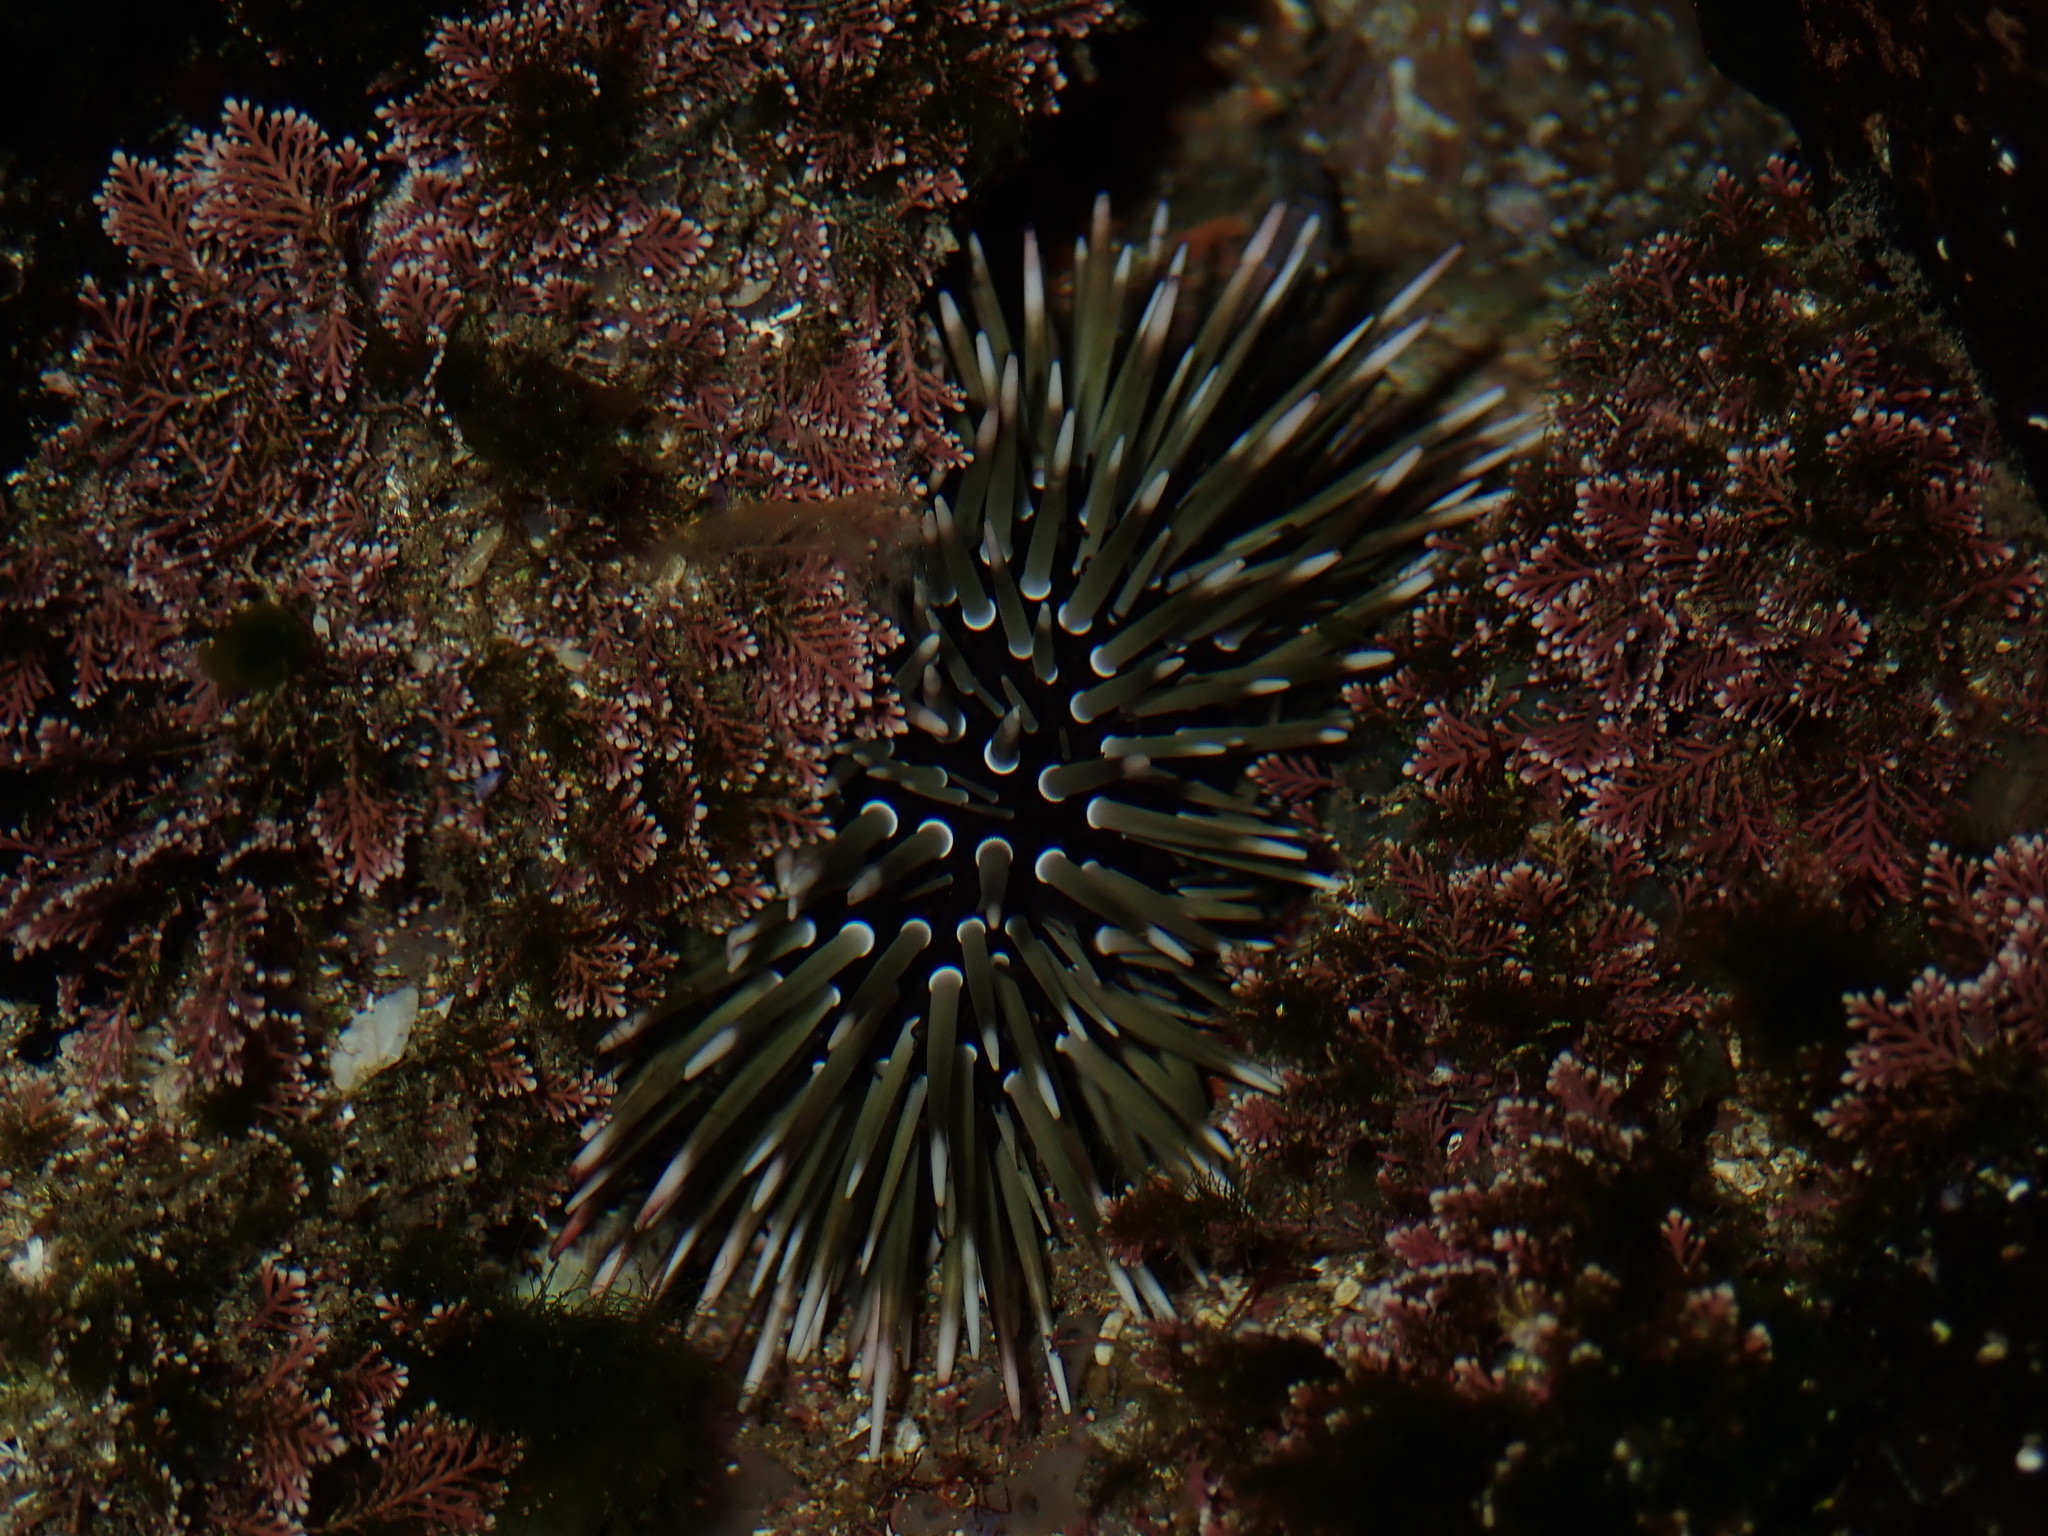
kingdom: Animalia
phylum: Echinodermata
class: Echinoidea
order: Camarodonta
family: Echinometridae
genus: Echinometra
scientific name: Echinometra mathaei
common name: Rock-boring urchin
